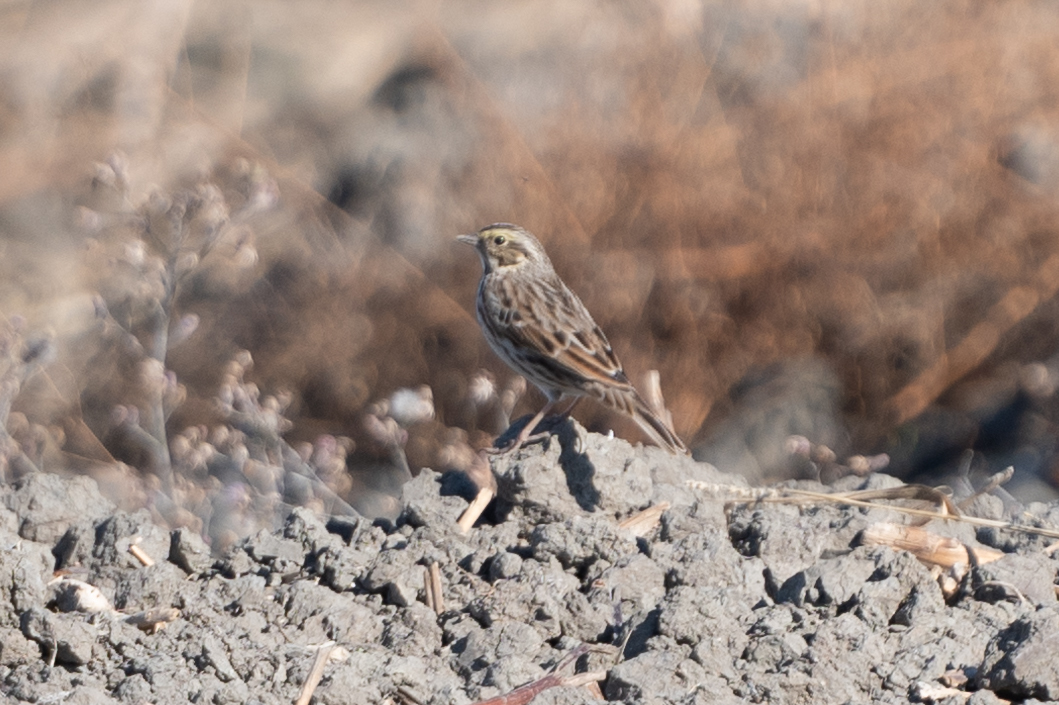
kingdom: Animalia
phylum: Chordata
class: Aves
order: Passeriformes
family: Passerellidae
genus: Passerculus
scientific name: Passerculus sandwichensis
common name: Savannah sparrow
